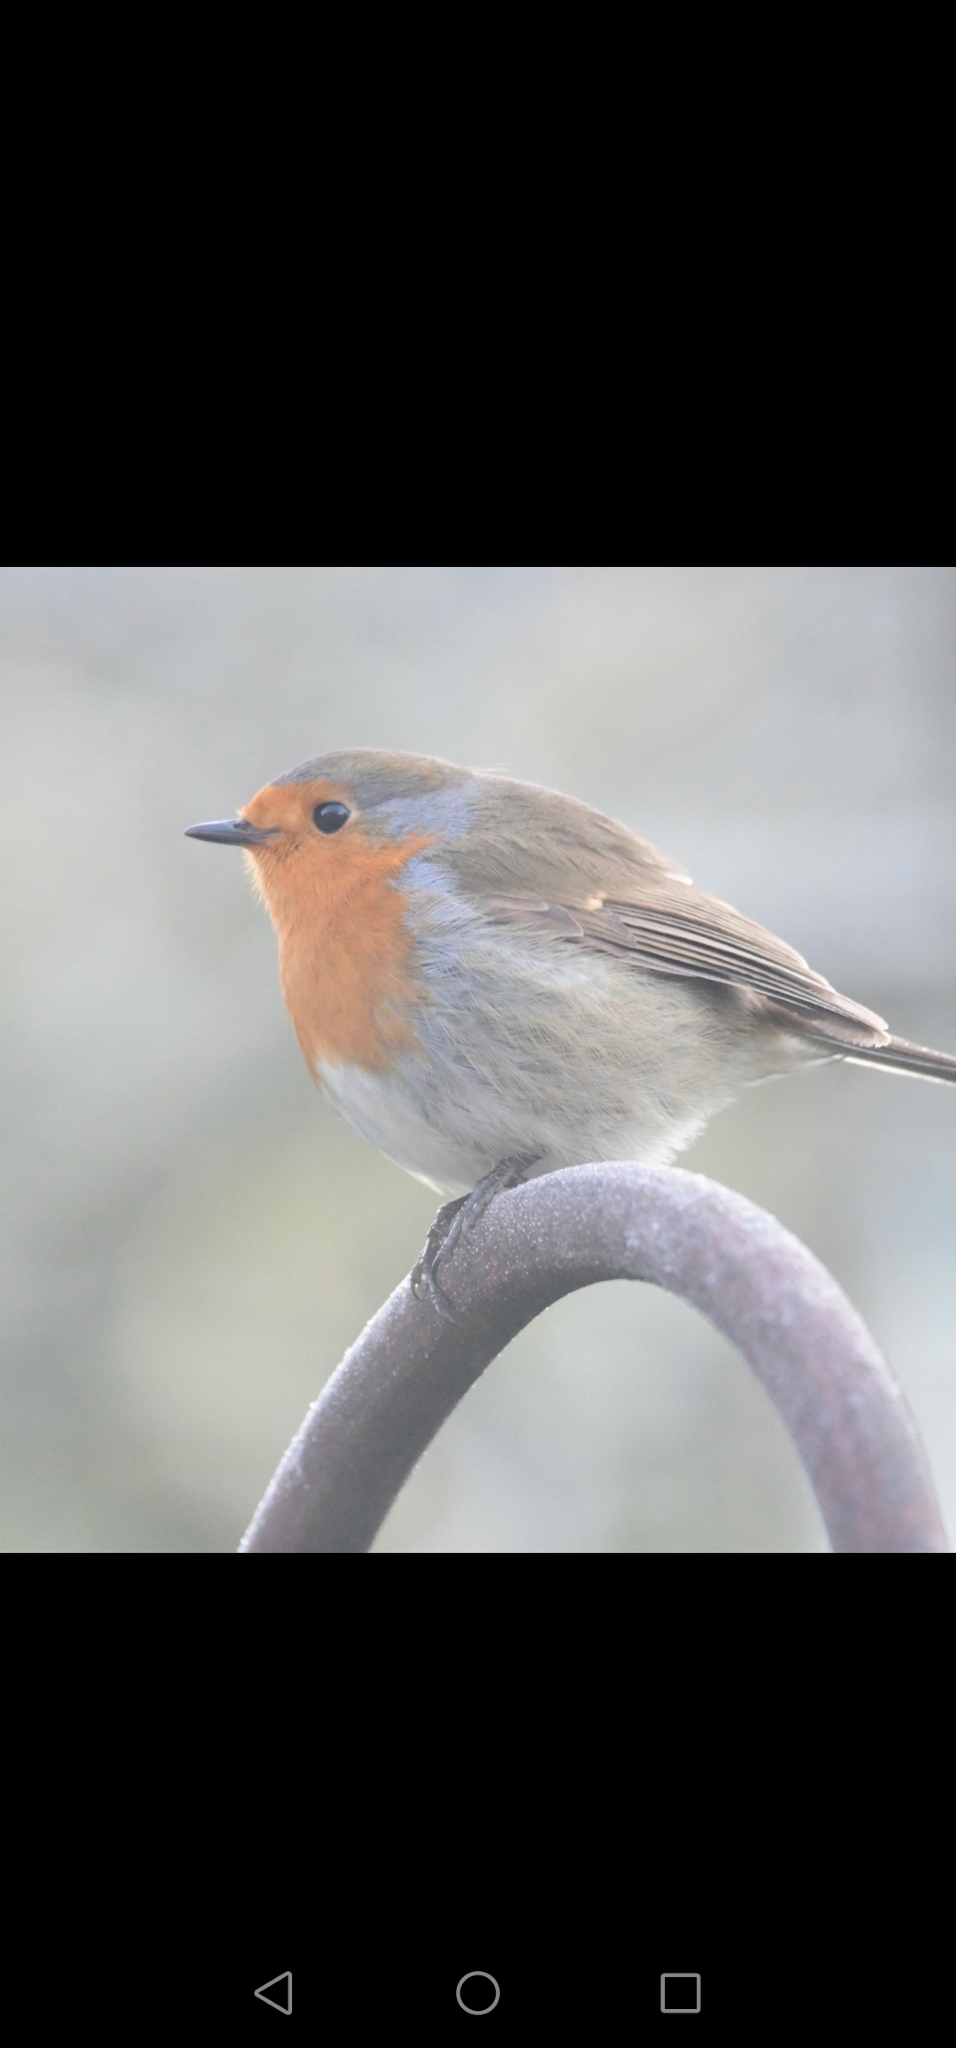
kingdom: Animalia
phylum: Chordata
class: Aves
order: Passeriformes
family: Muscicapidae
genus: Erithacus
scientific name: Erithacus rubecula
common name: European robin
